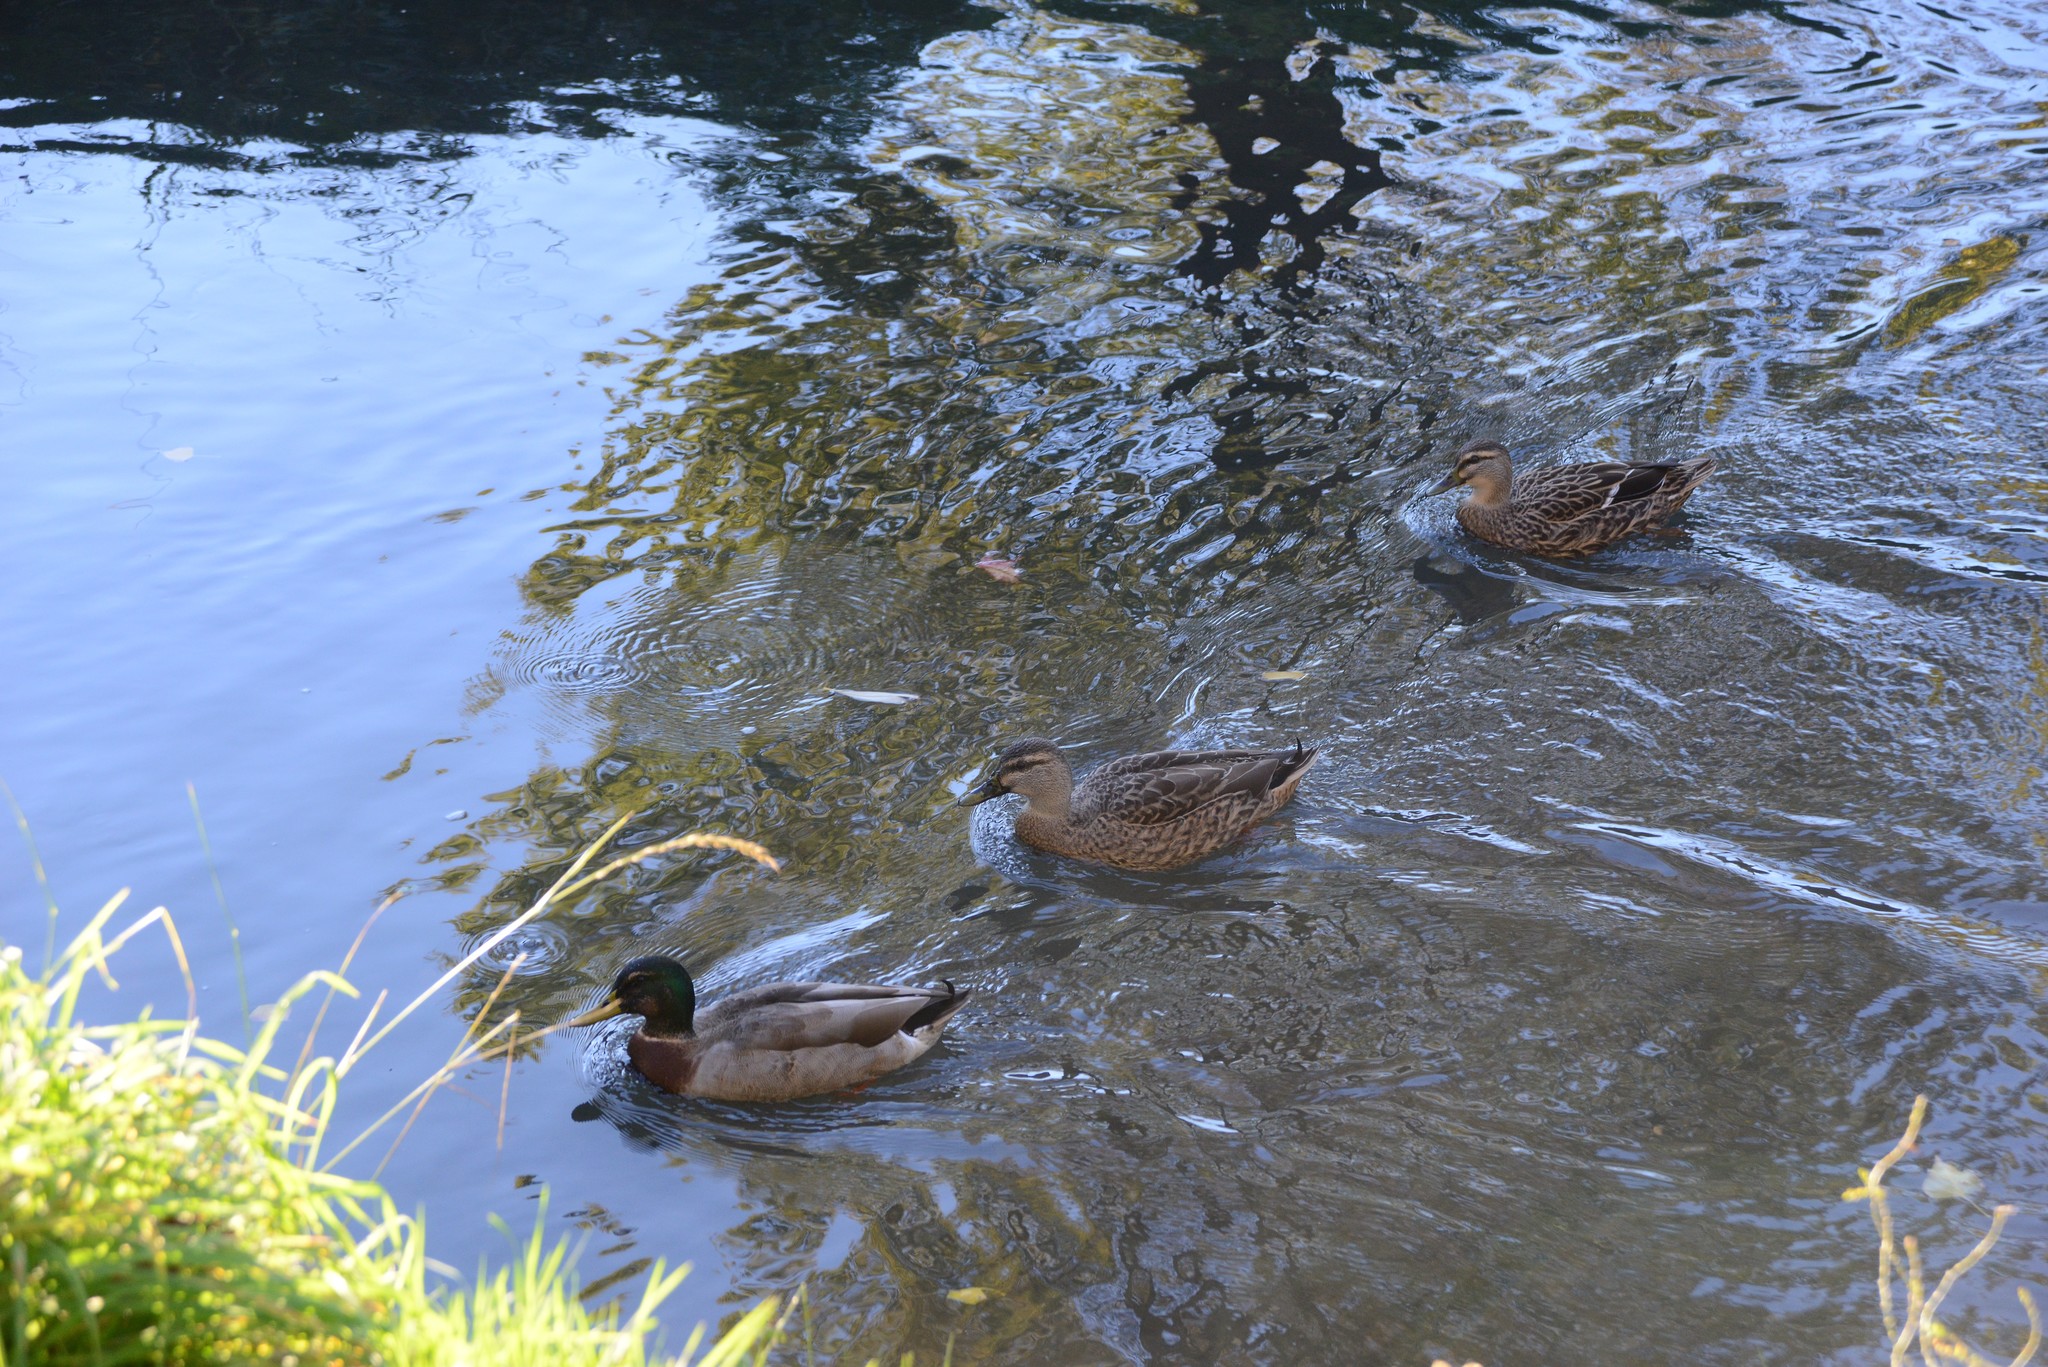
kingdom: Animalia
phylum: Chordata
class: Aves
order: Anseriformes
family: Anatidae
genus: Anas
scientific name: Anas platyrhynchos
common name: Mallard
